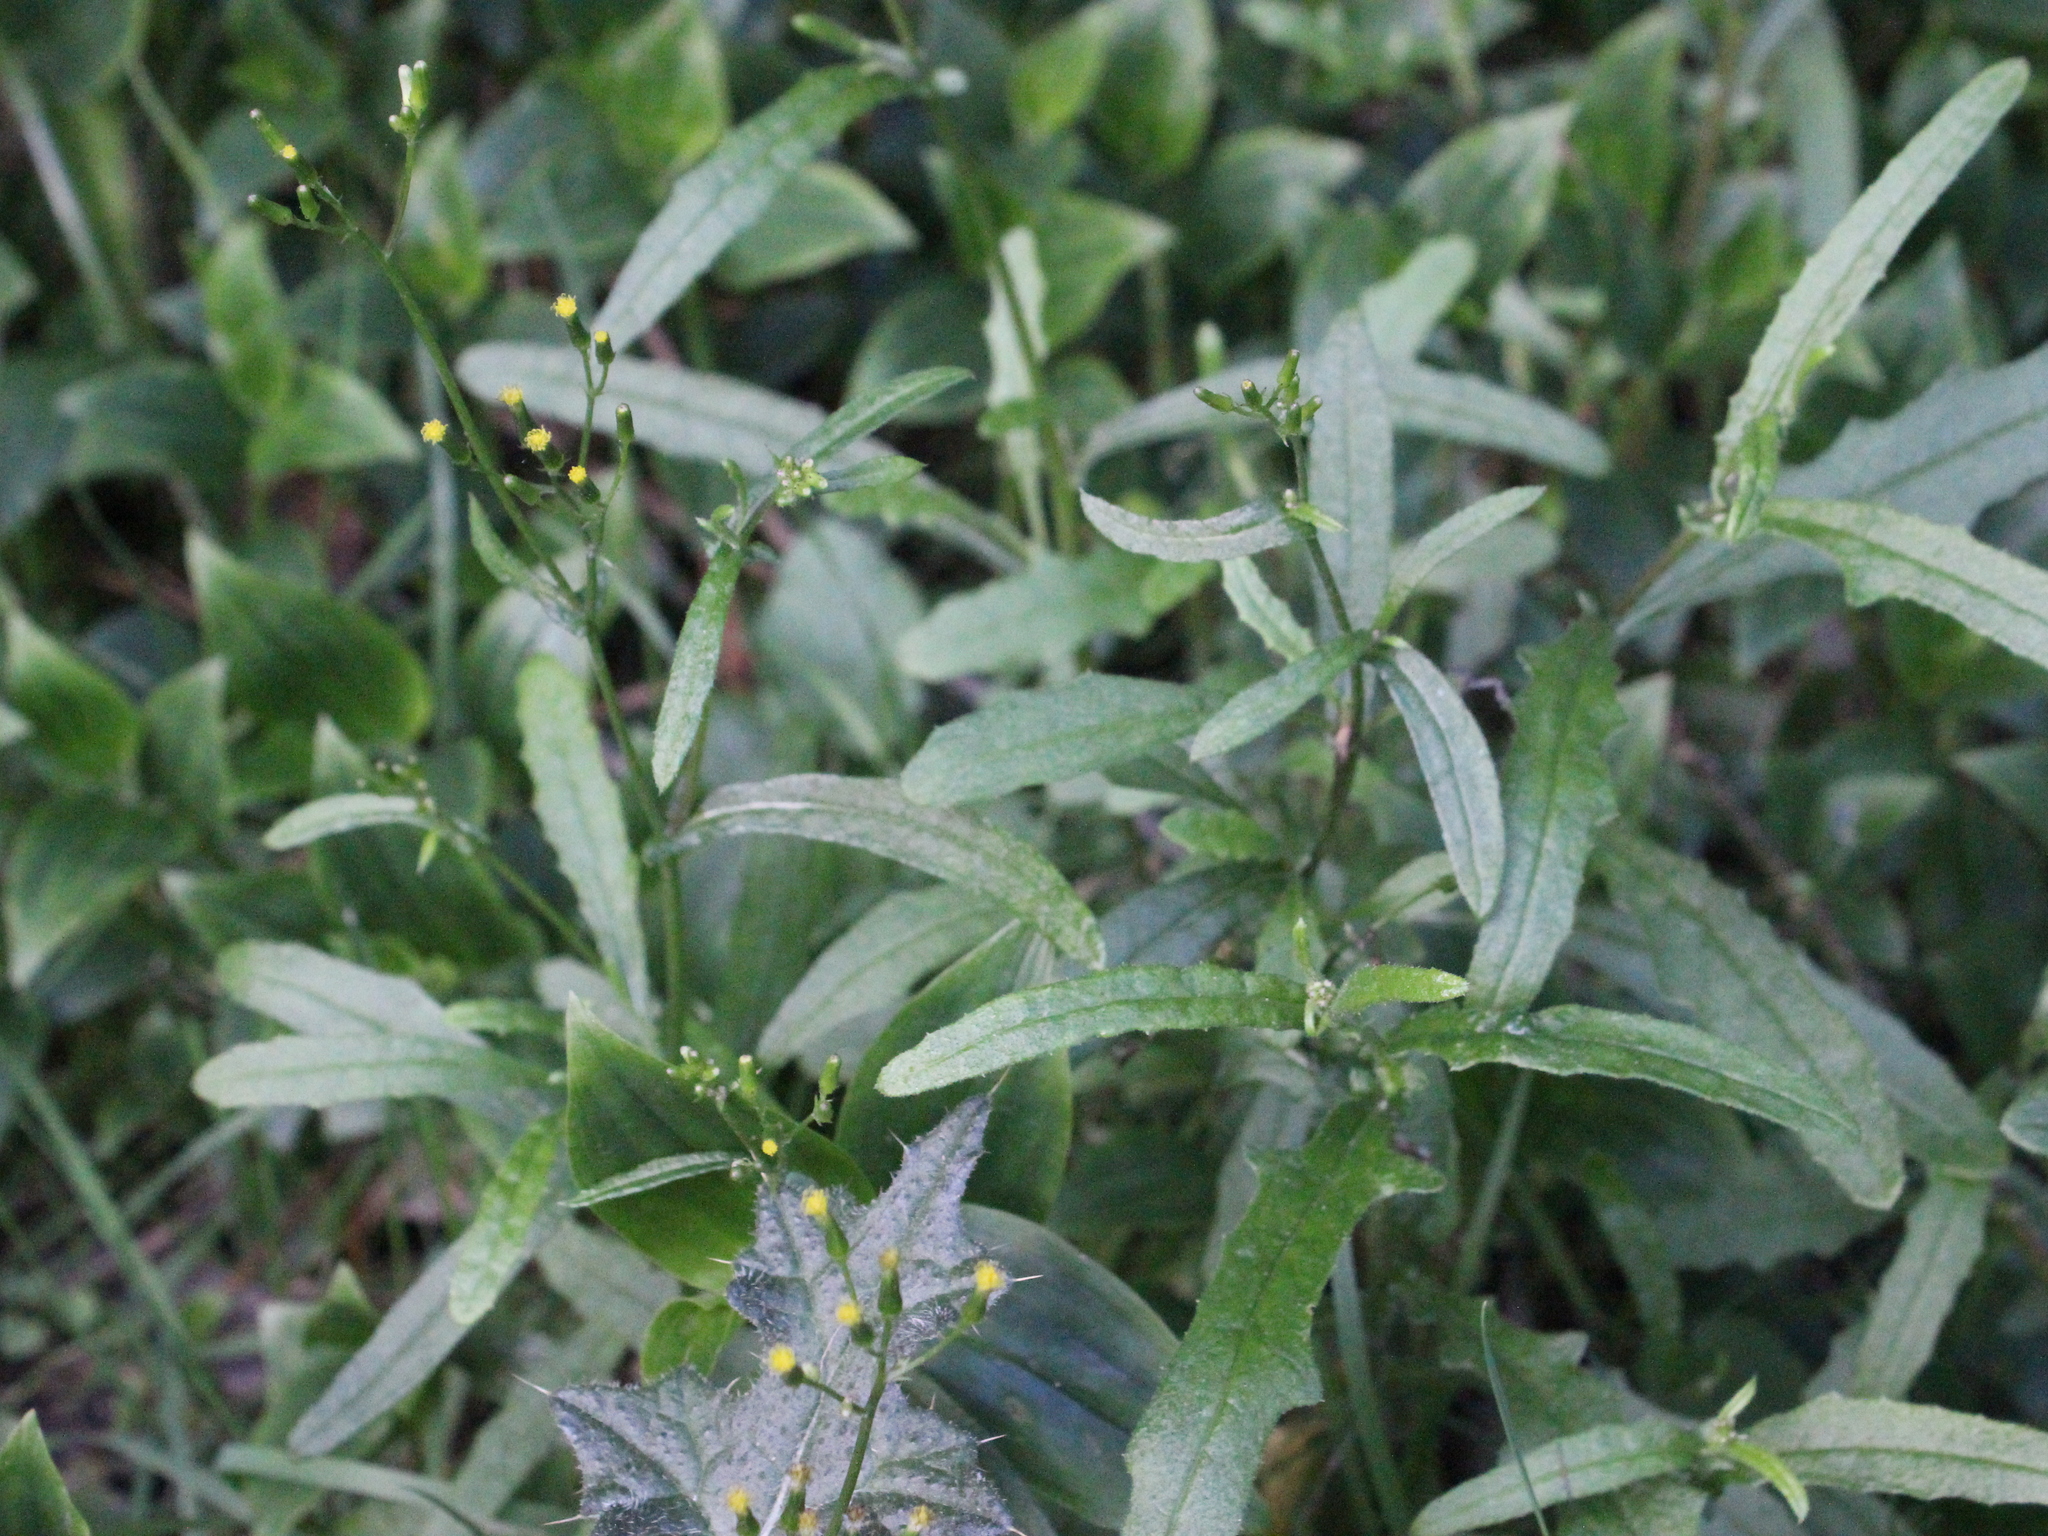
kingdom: Plantae
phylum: Tracheophyta
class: Magnoliopsida
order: Asterales
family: Asteraceae
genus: Senecio
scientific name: Senecio minimus
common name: Toothed fireweed
